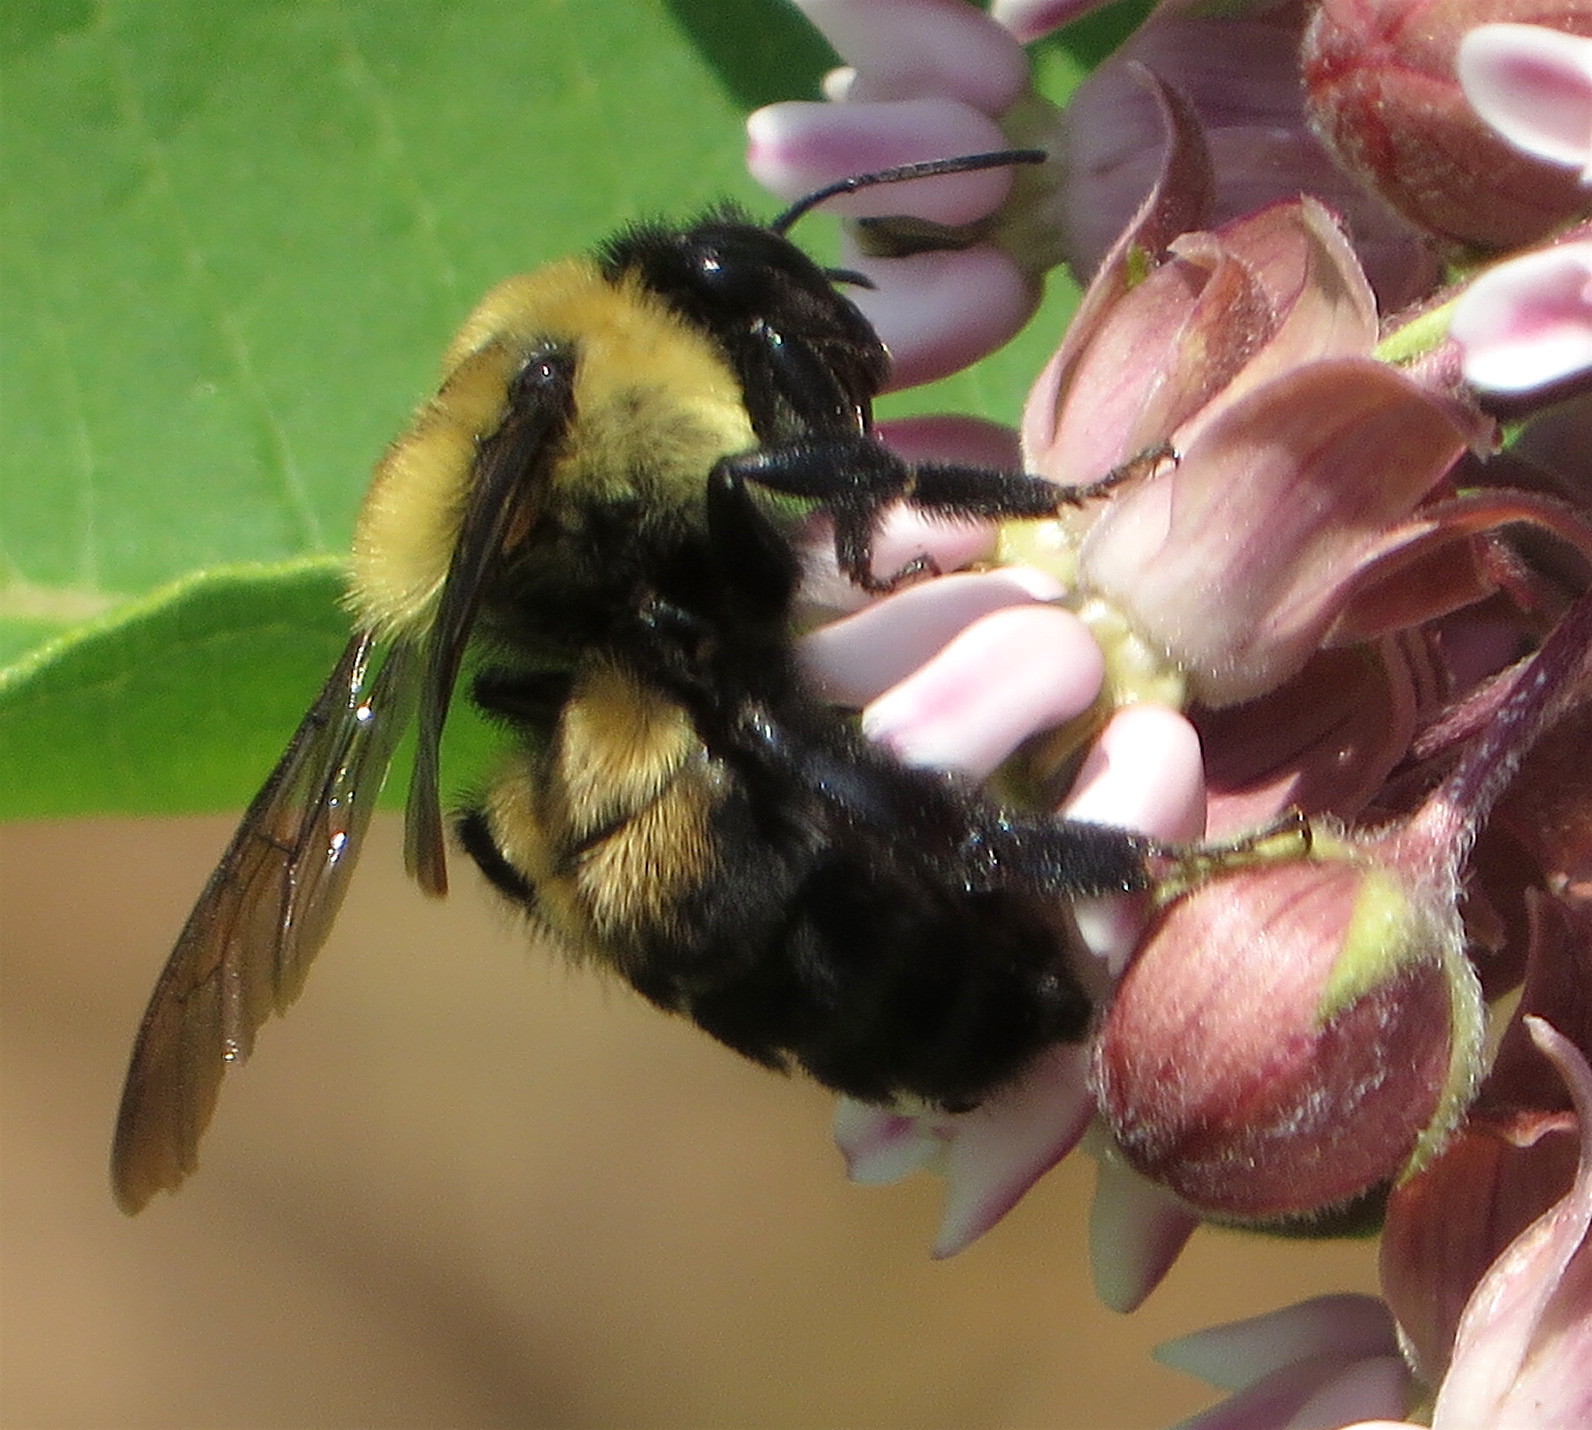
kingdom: Animalia
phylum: Arthropoda
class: Insecta
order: Hymenoptera
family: Apidae
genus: Bombus
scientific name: Bombus griseocollis
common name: Brown-belted bumble bee
